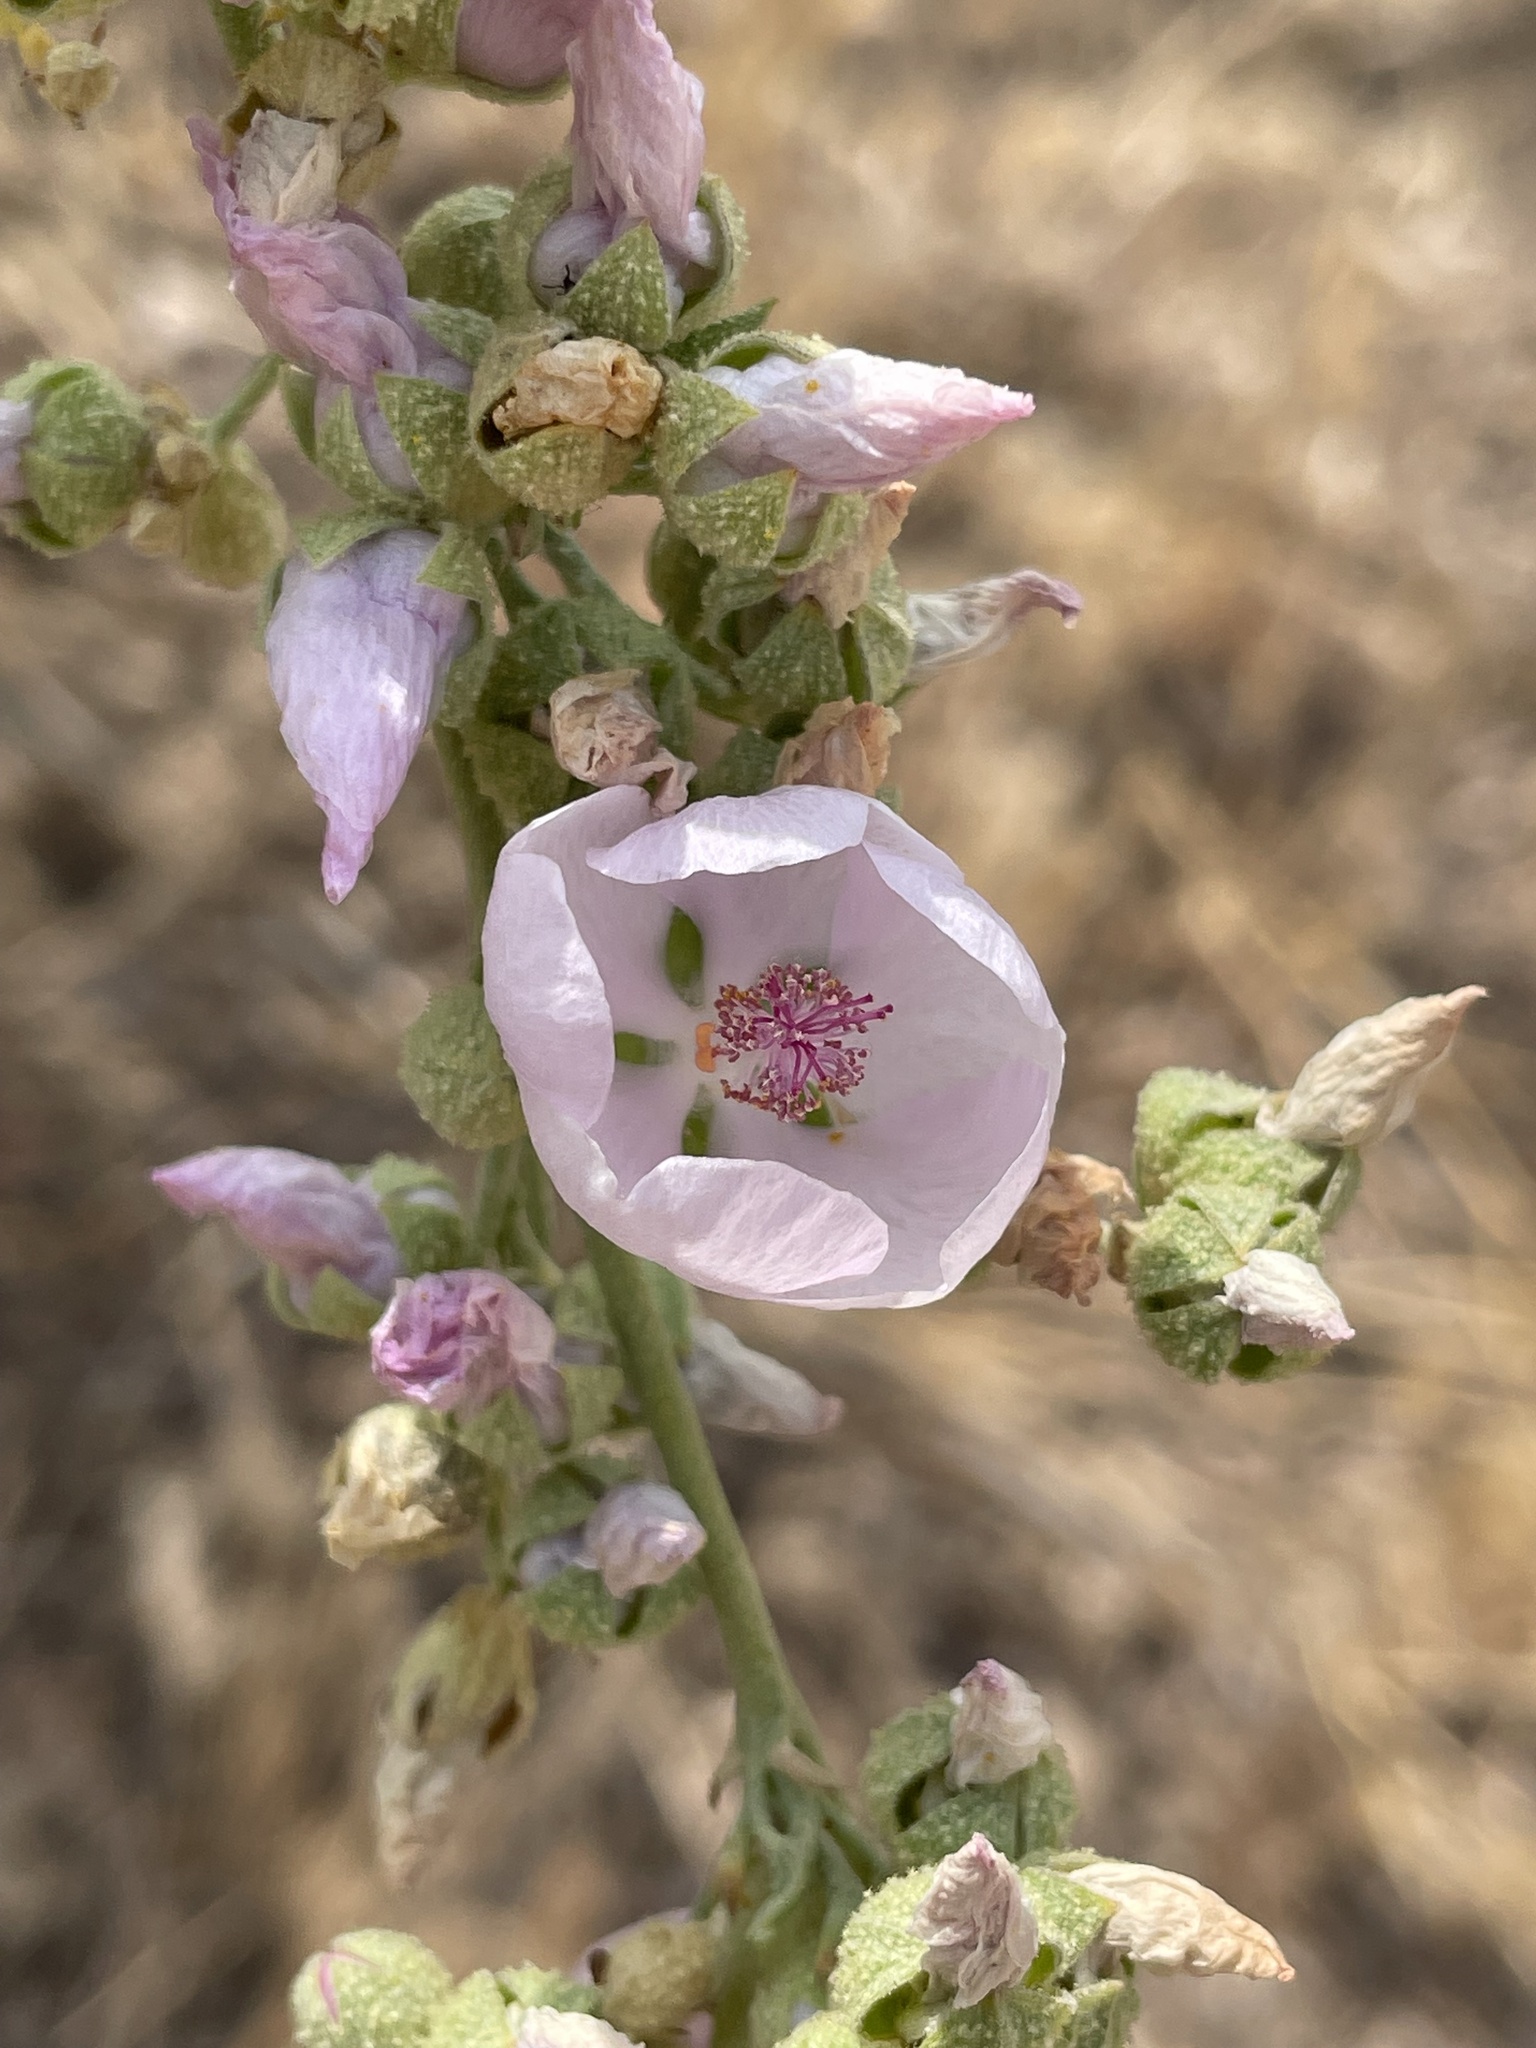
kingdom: Plantae
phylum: Tracheophyta
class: Magnoliopsida
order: Malvales
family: Malvaceae
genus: Malacothamnus
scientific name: Malacothamnus fasciculatus
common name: Sant cruz island bush-mallow
